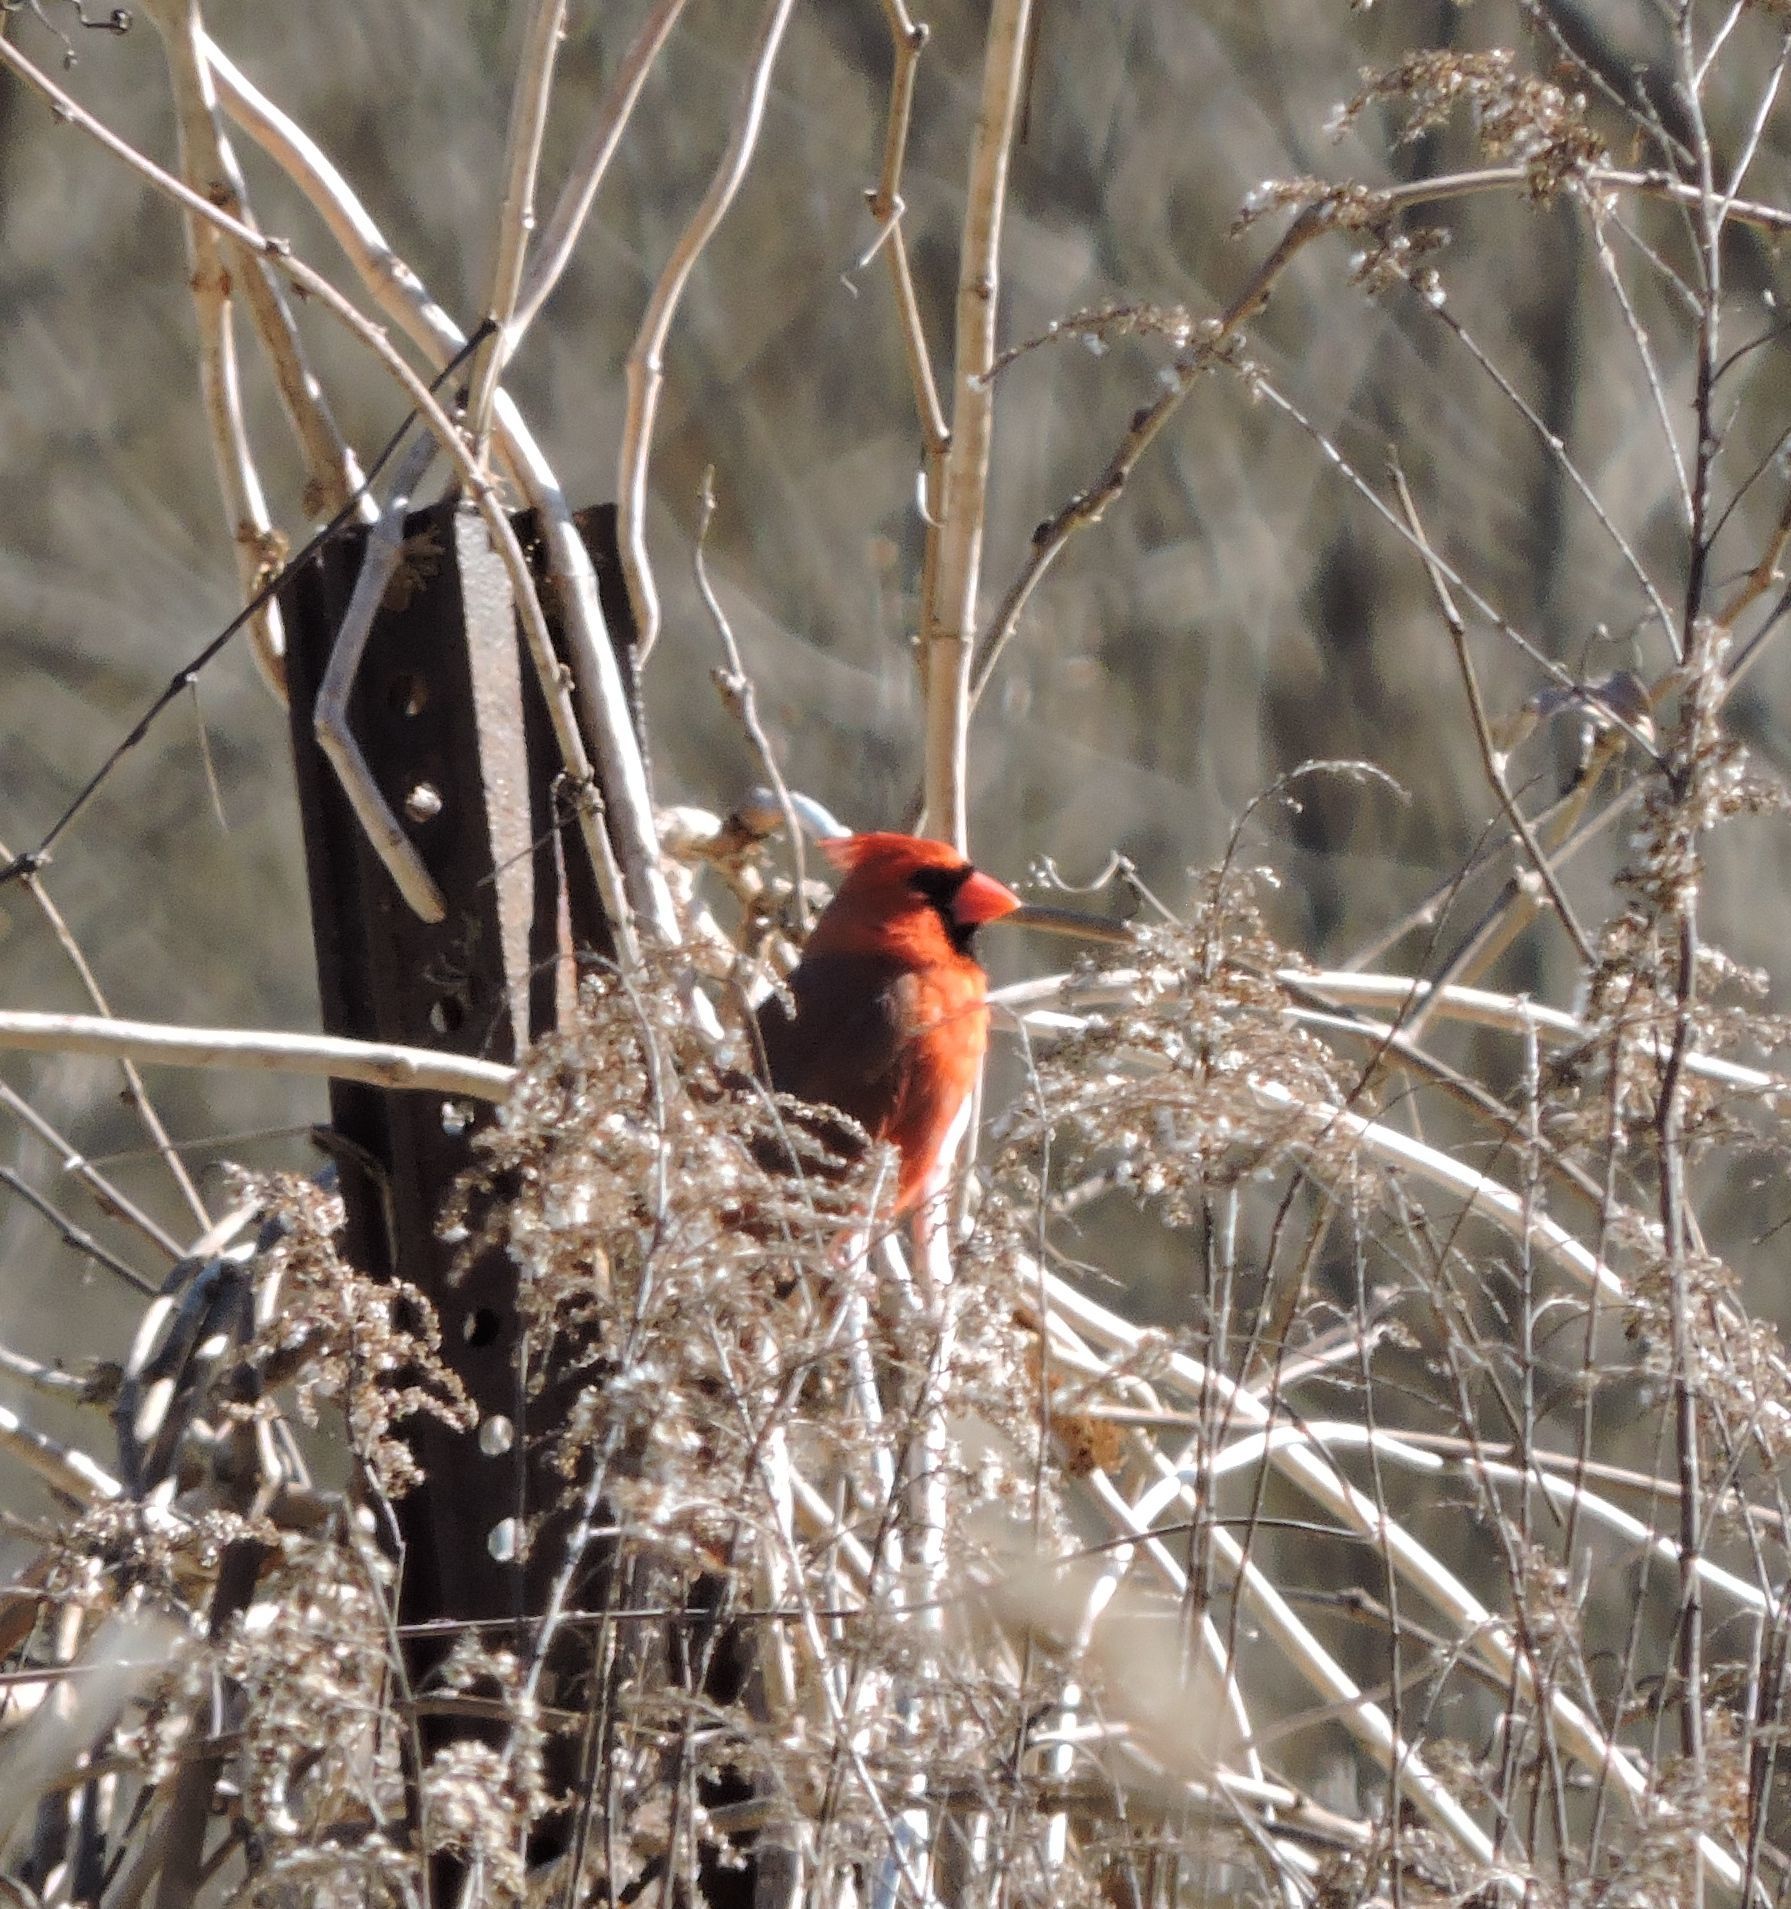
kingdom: Animalia
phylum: Chordata
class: Aves
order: Passeriformes
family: Cardinalidae
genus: Cardinalis
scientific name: Cardinalis cardinalis
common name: Northern cardinal
